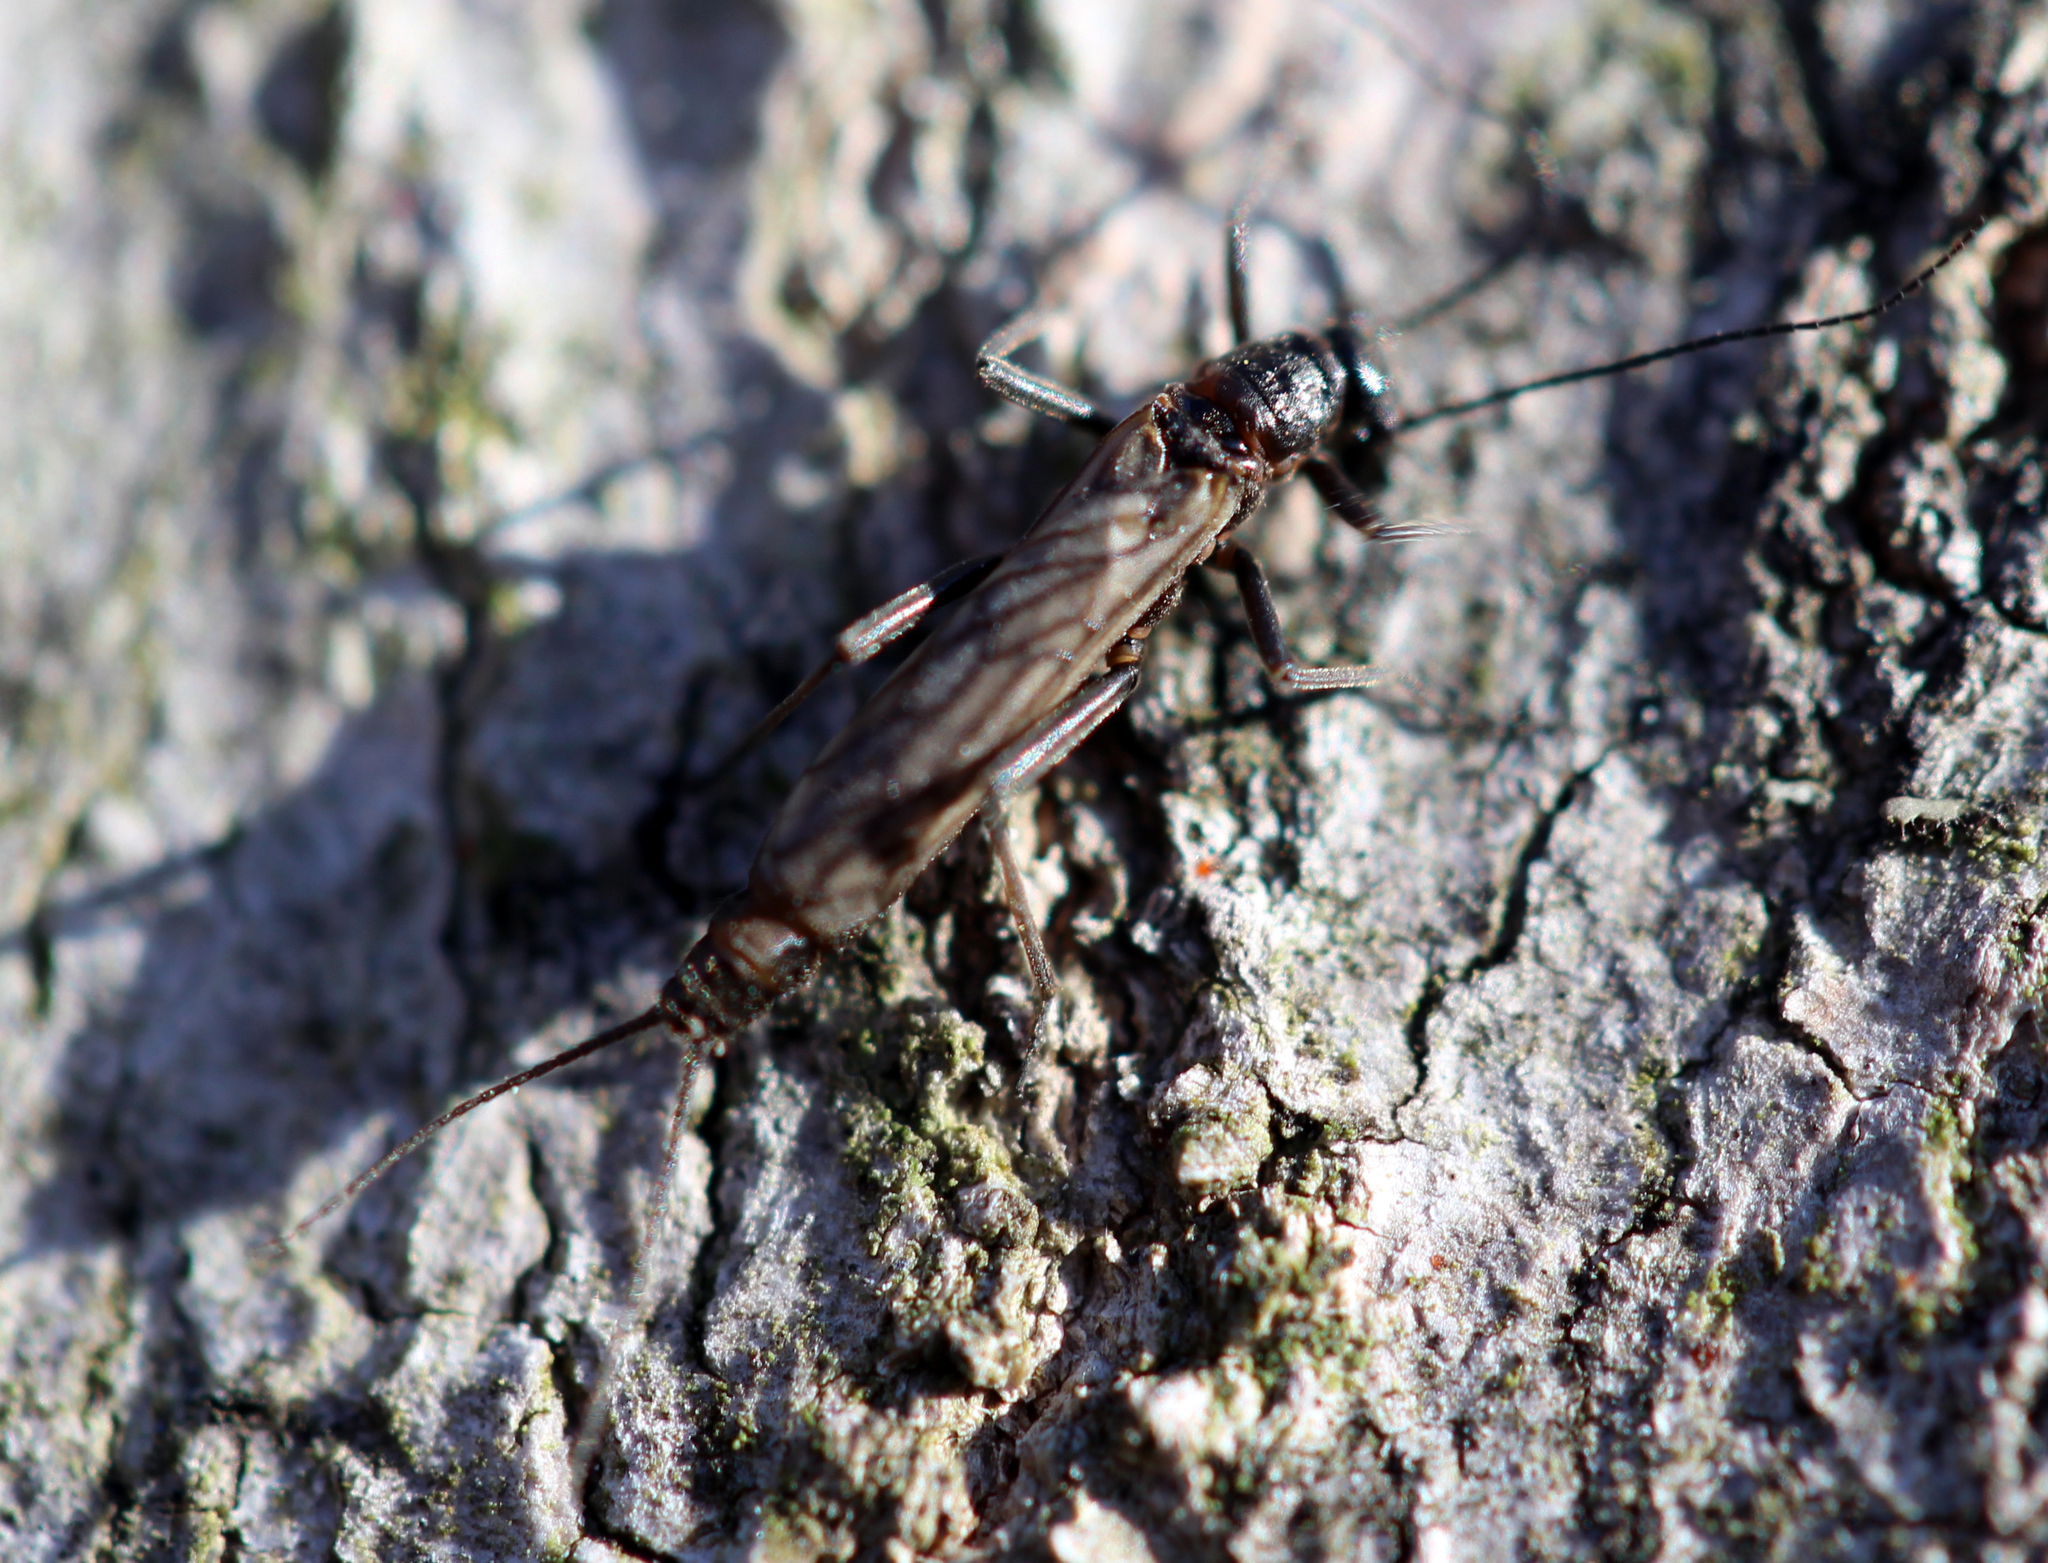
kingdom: Animalia
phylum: Arthropoda
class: Insecta
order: Plecoptera
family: Capniidae
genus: Allocapnia
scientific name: Allocapnia
